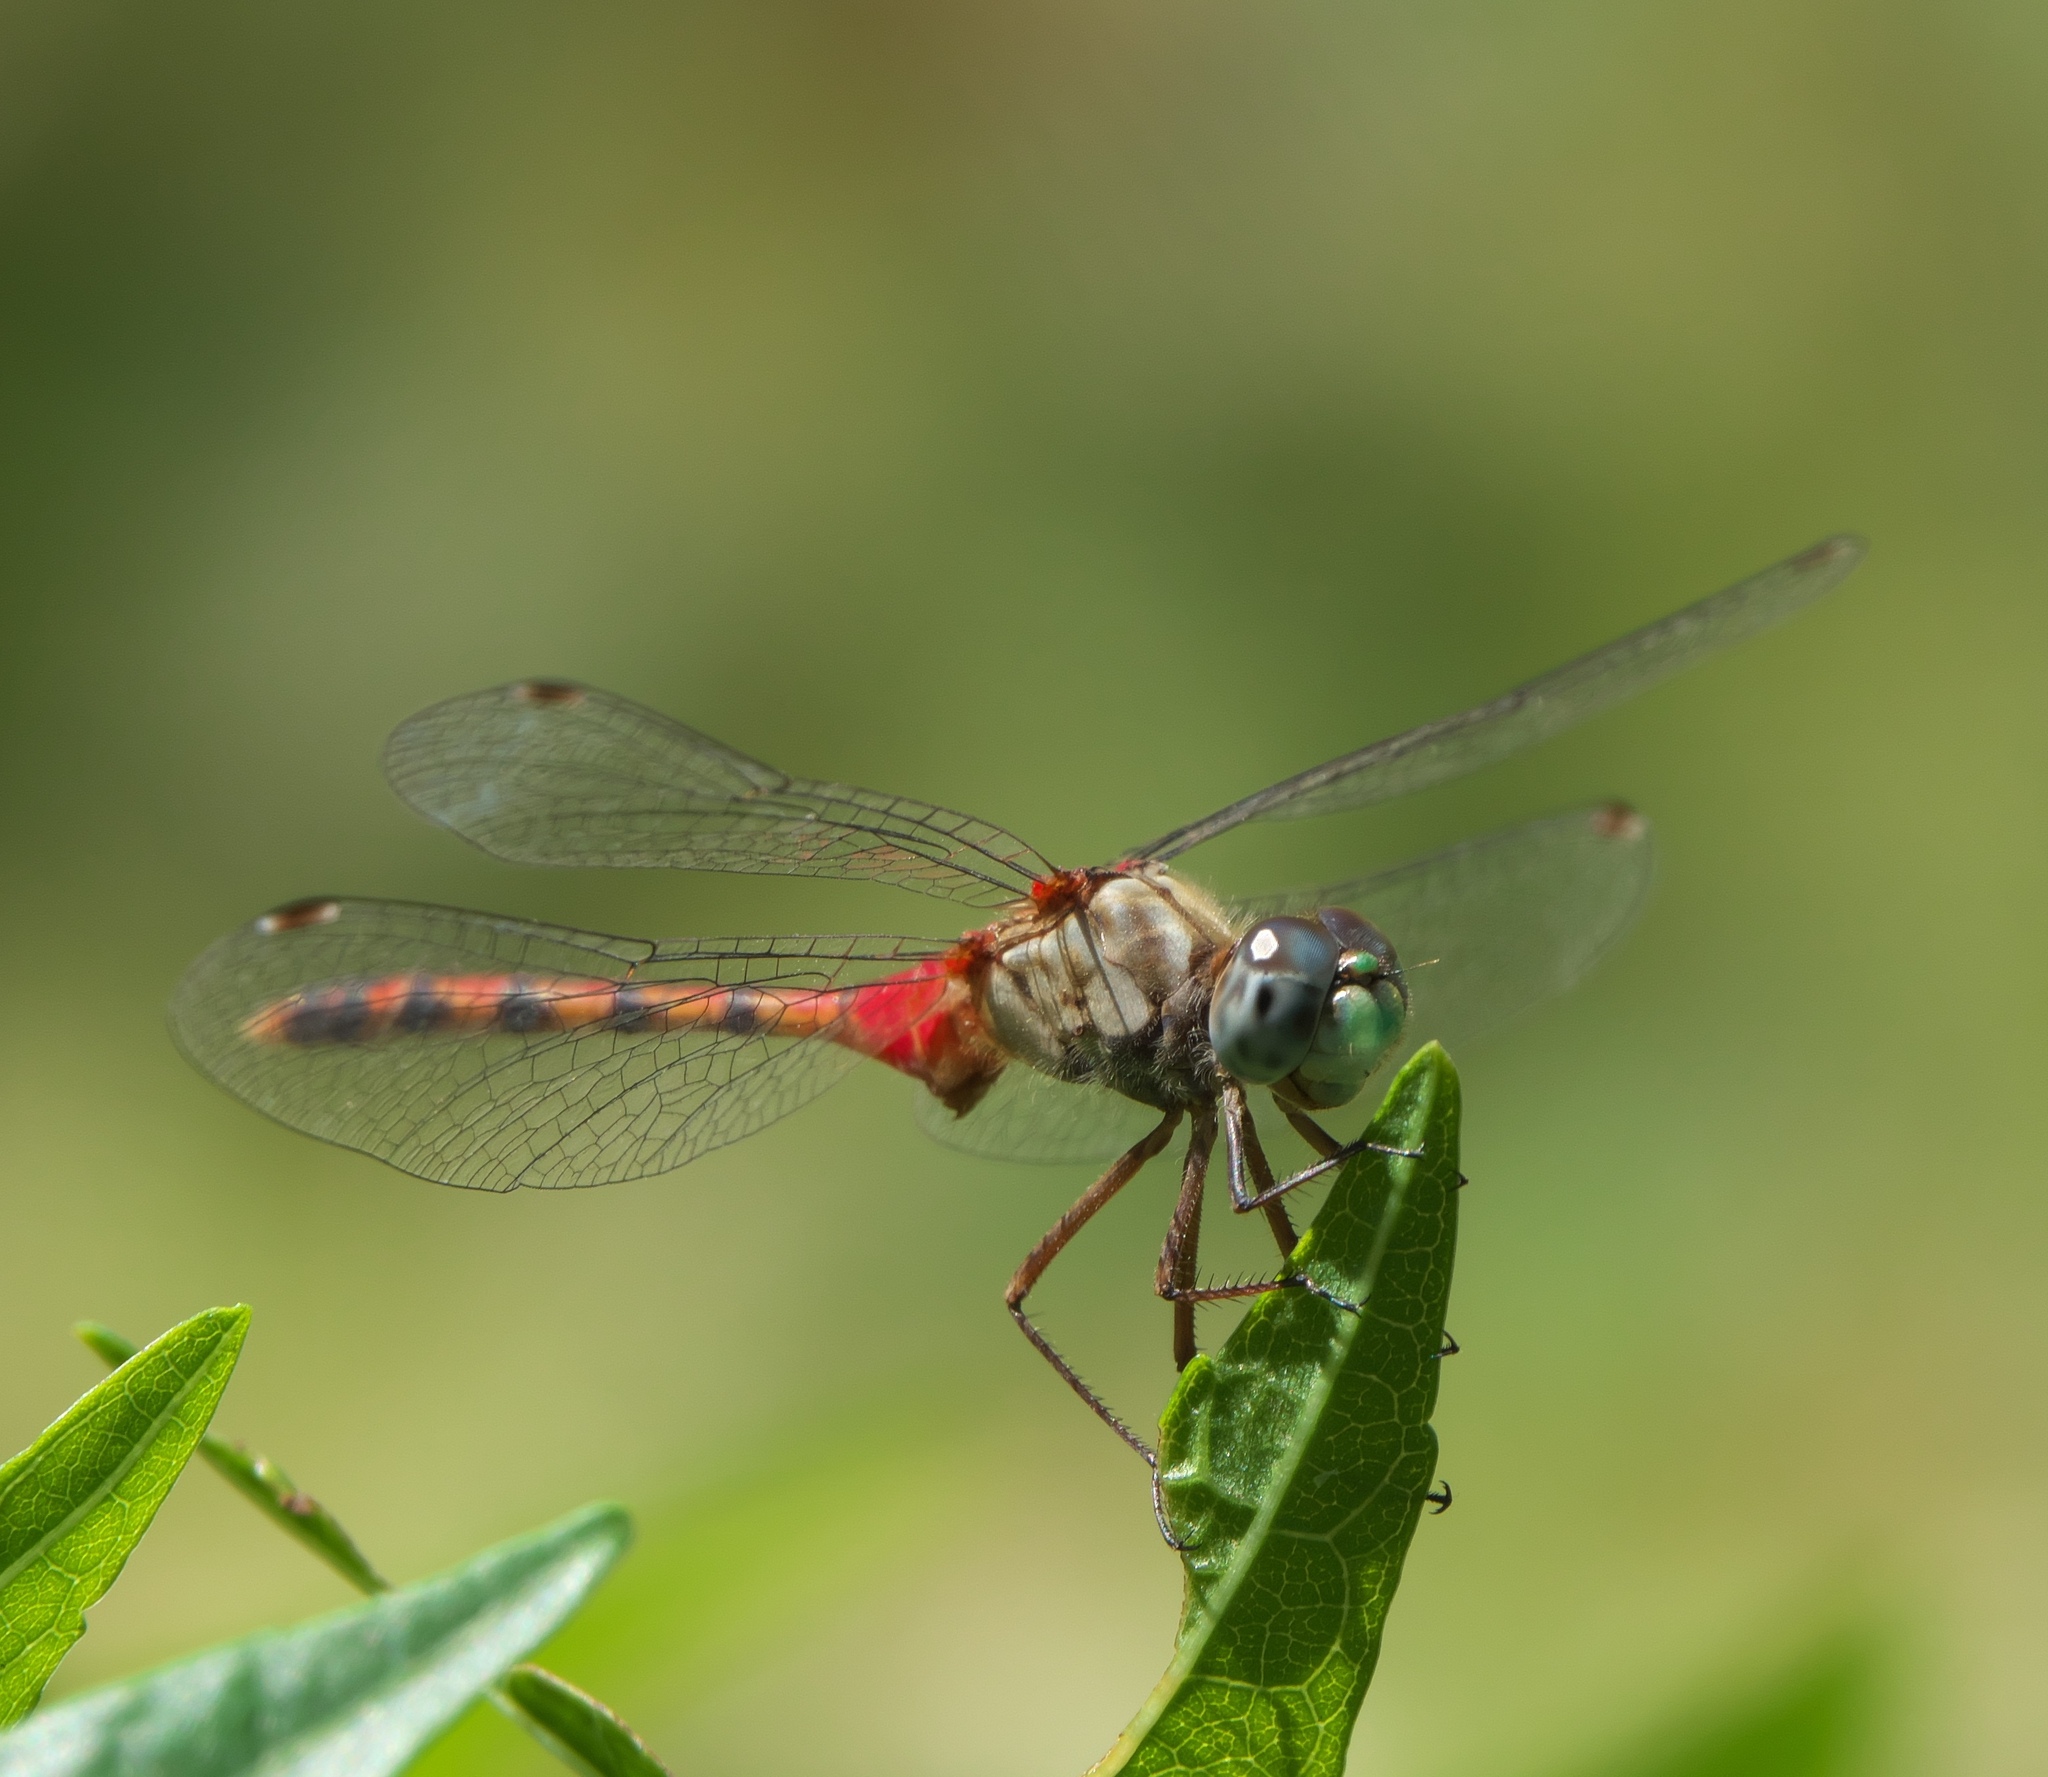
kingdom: Animalia
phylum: Arthropoda
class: Insecta
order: Odonata
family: Libellulidae
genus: Sympetrum
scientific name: Sympetrum ambiguum
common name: Blue-faced meadowhawk
